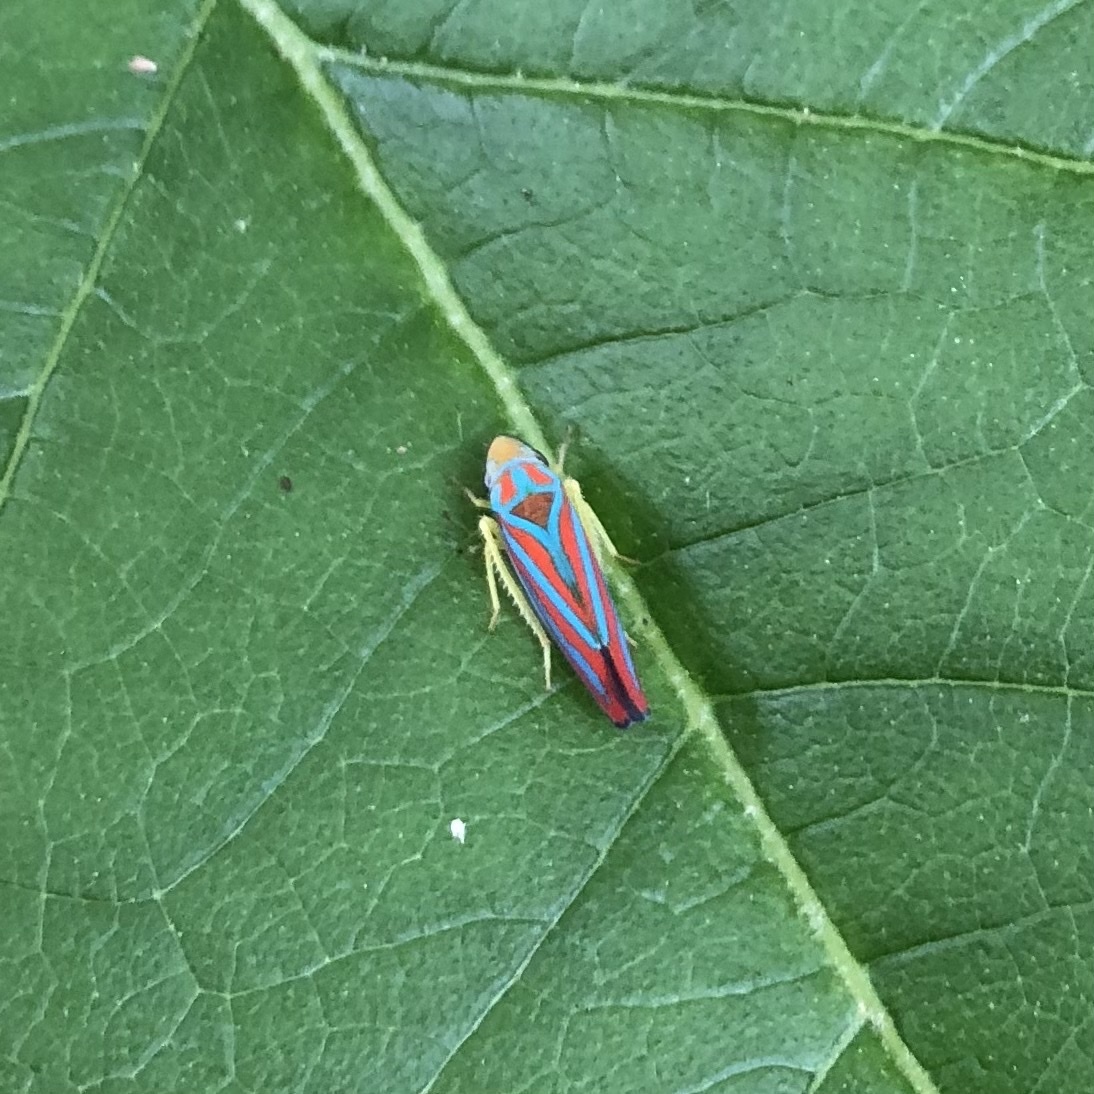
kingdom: Animalia
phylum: Arthropoda
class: Insecta
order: Hemiptera
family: Cicadellidae
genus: Graphocephala
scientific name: Graphocephala coccinea
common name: Candy-striped leafhopper
